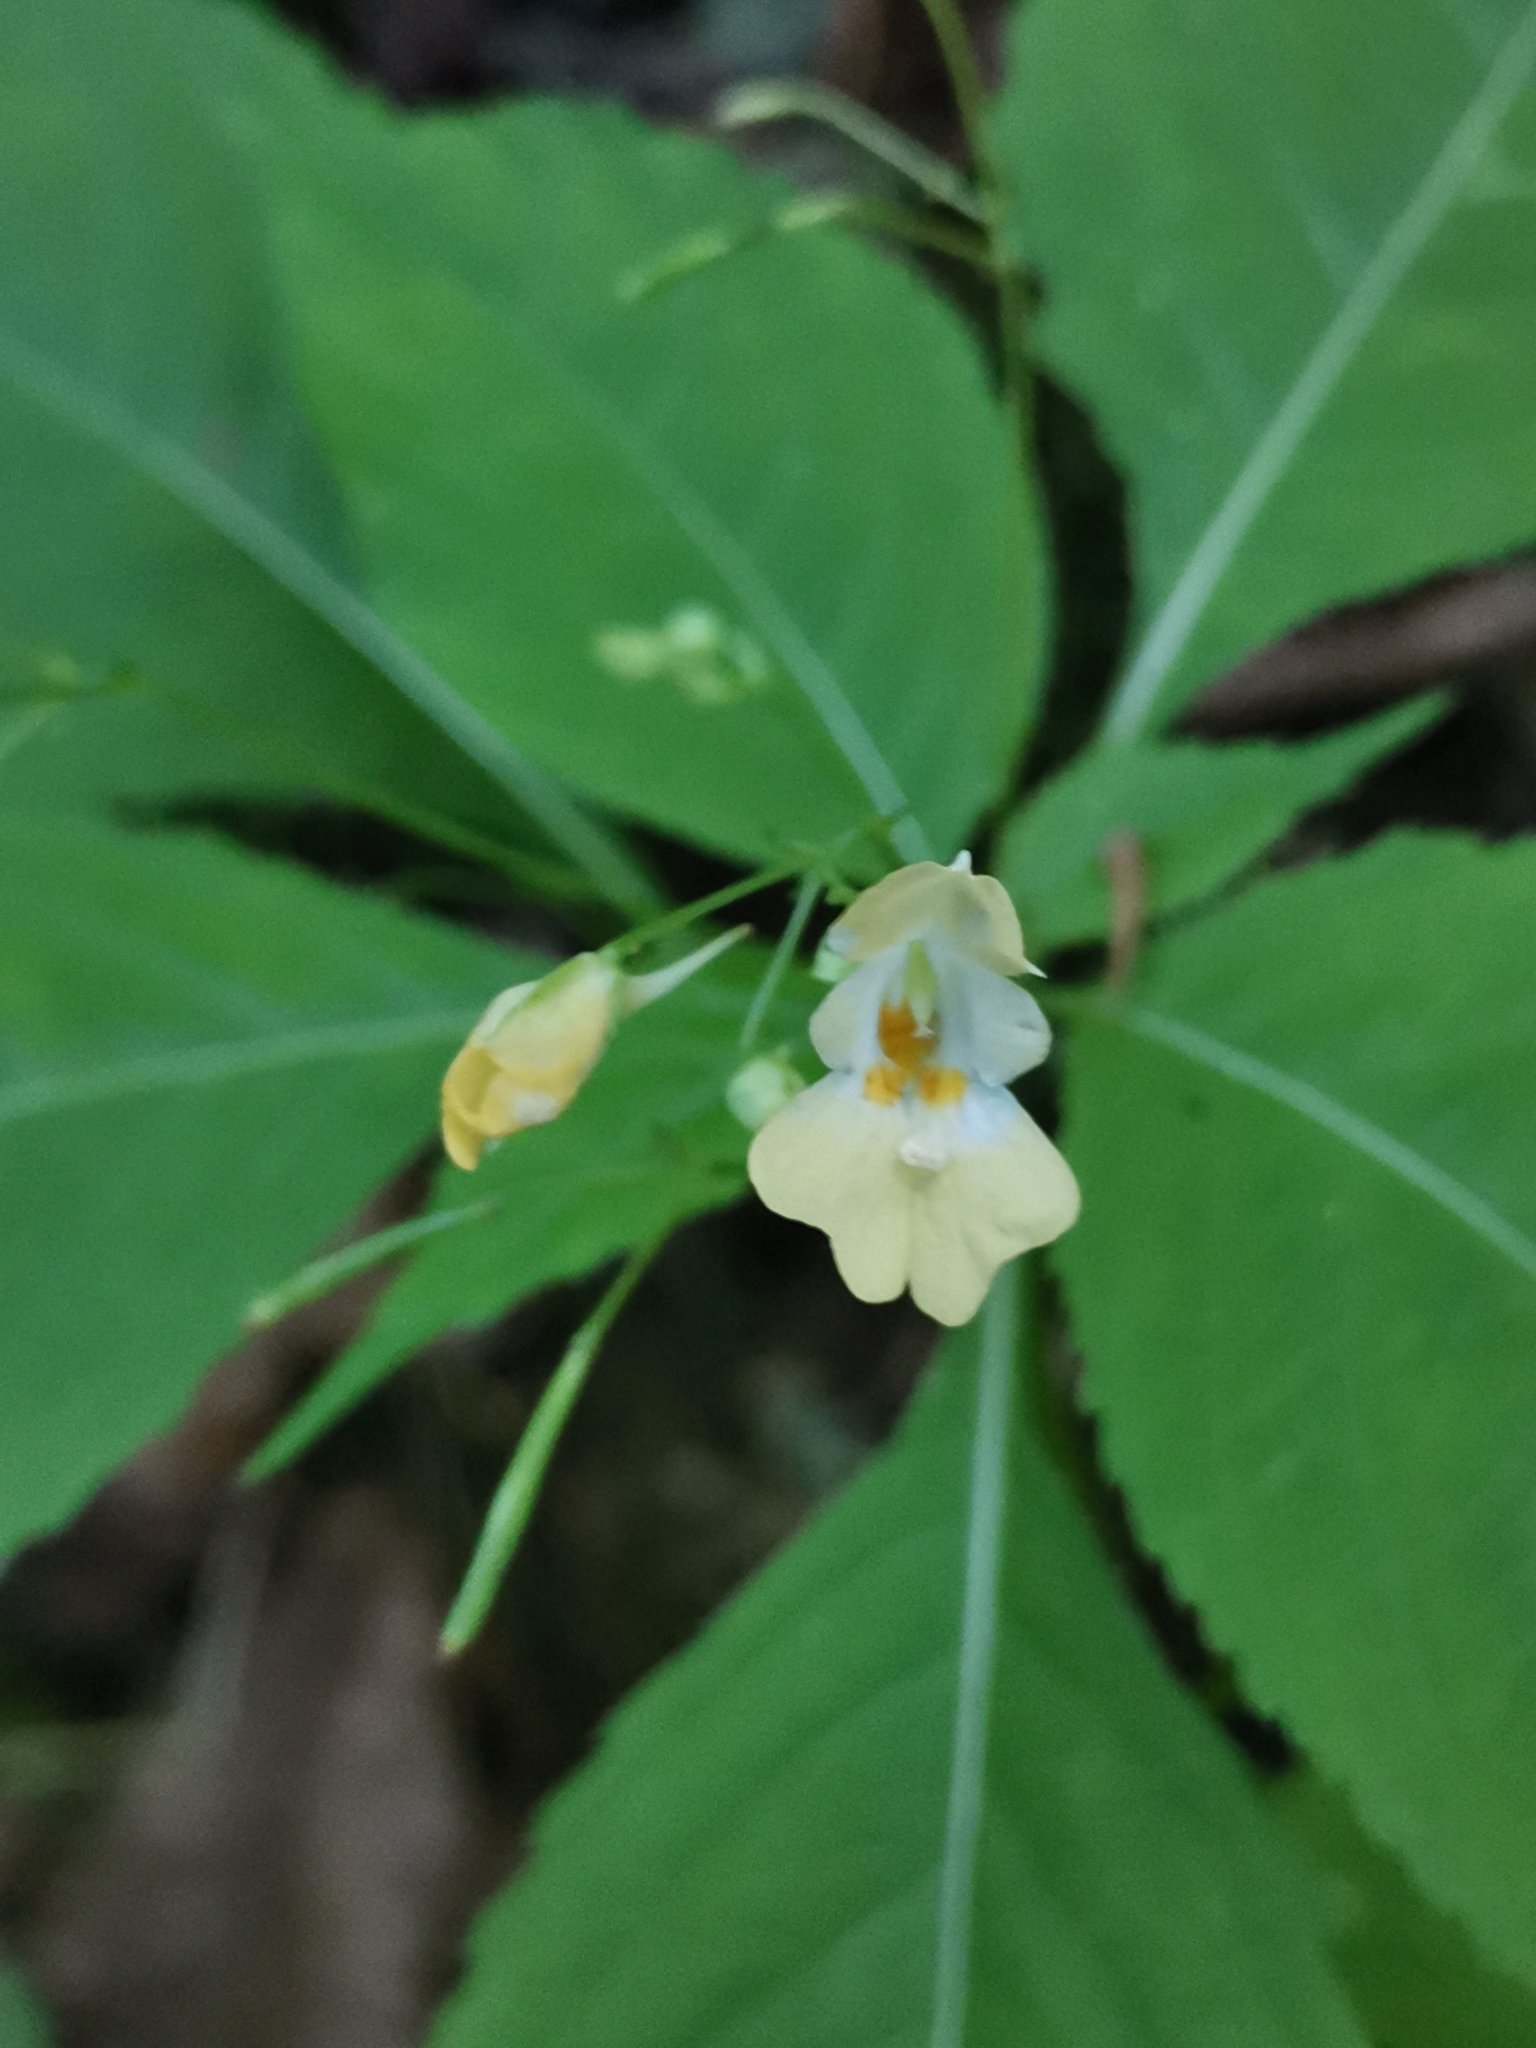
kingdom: Plantae
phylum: Tracheophyta
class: Magnoliopsida
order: Ericales
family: Balsaminaceae
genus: Impatiens
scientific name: Impatiens parviflora
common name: Small balsam
